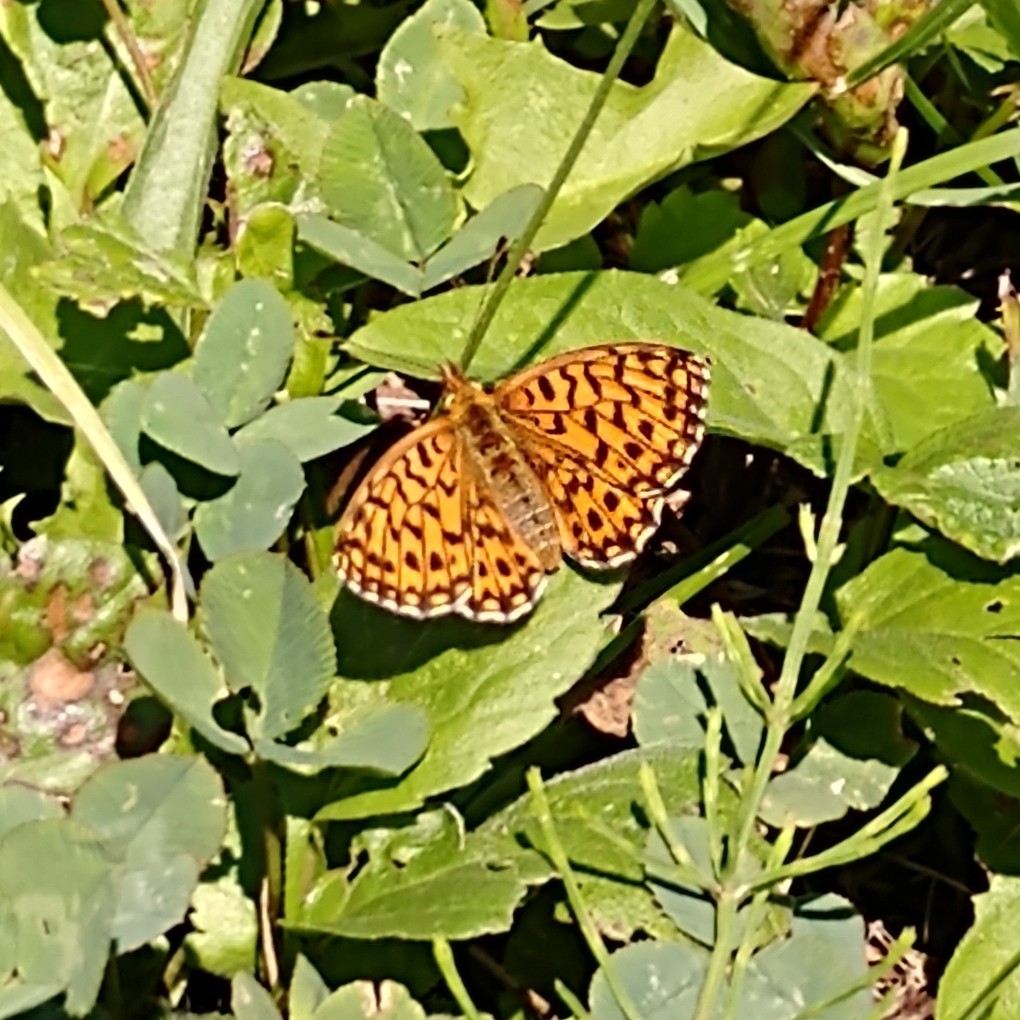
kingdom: Animalia
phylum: Arthropoda
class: Insecta
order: Lepidoptera
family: Nymphalidae
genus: Boloria
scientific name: Boloria dia
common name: Weaver's fritillary
